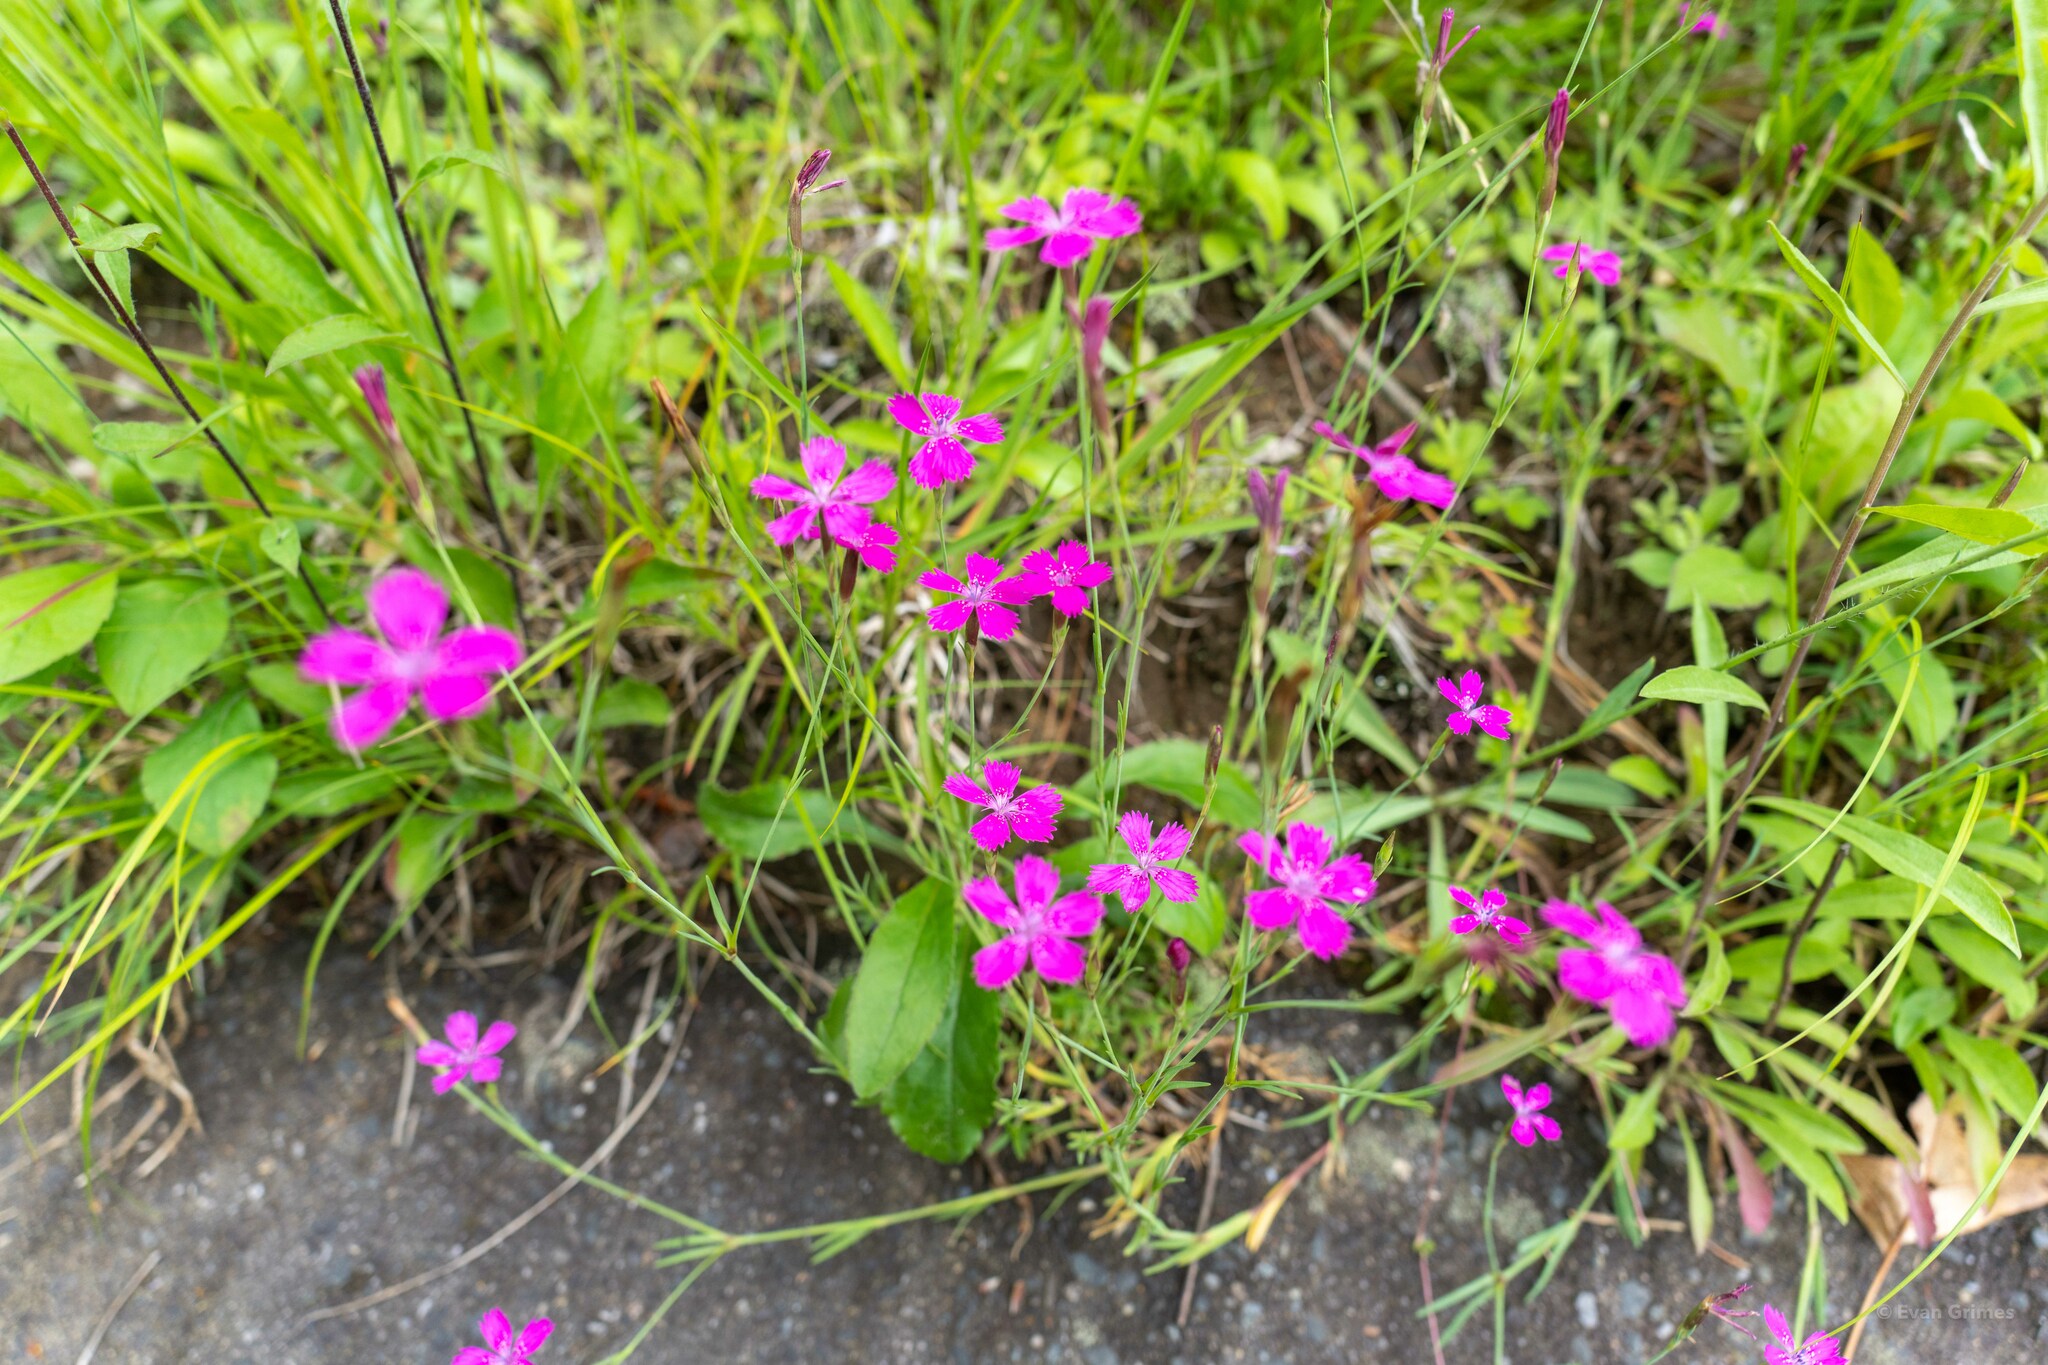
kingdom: Plantae
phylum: Tracheophyta
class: Magnoliopsida
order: Caryophyllales
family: Caryophyllaceae
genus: Dianthus
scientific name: Dianthus deltoides
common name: Maiden pink
